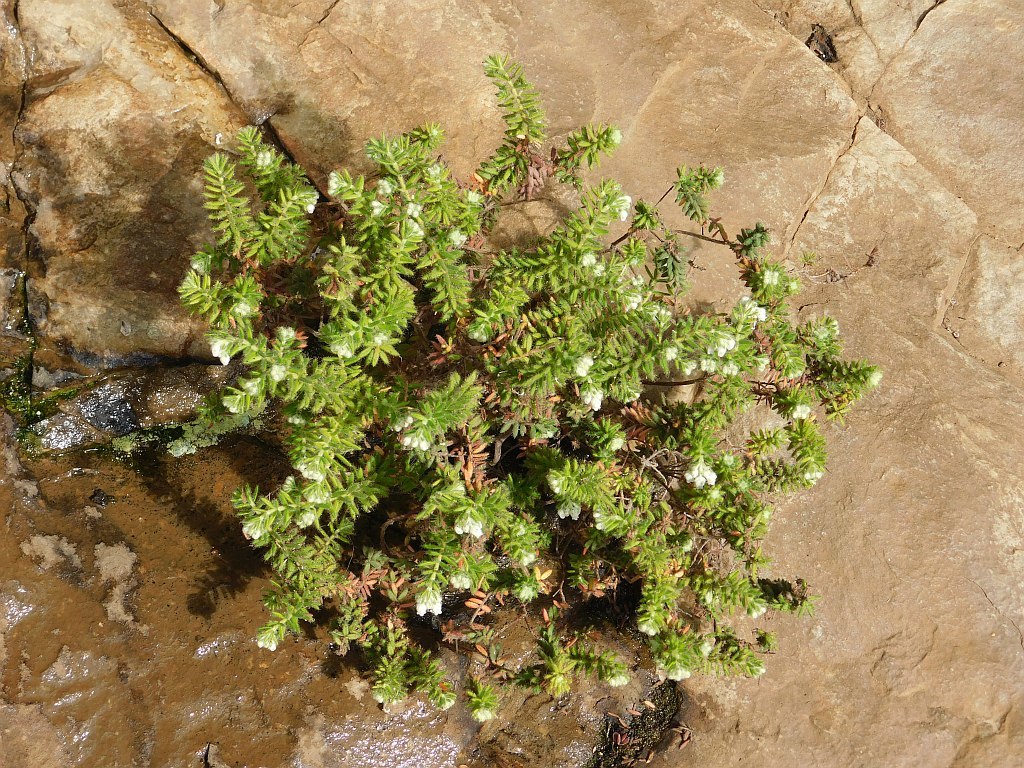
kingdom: Plantae
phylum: Tracheophyta
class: Magnoliopsida
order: Ericales
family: Ericaceae
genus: Erica
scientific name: Erica pannosa
